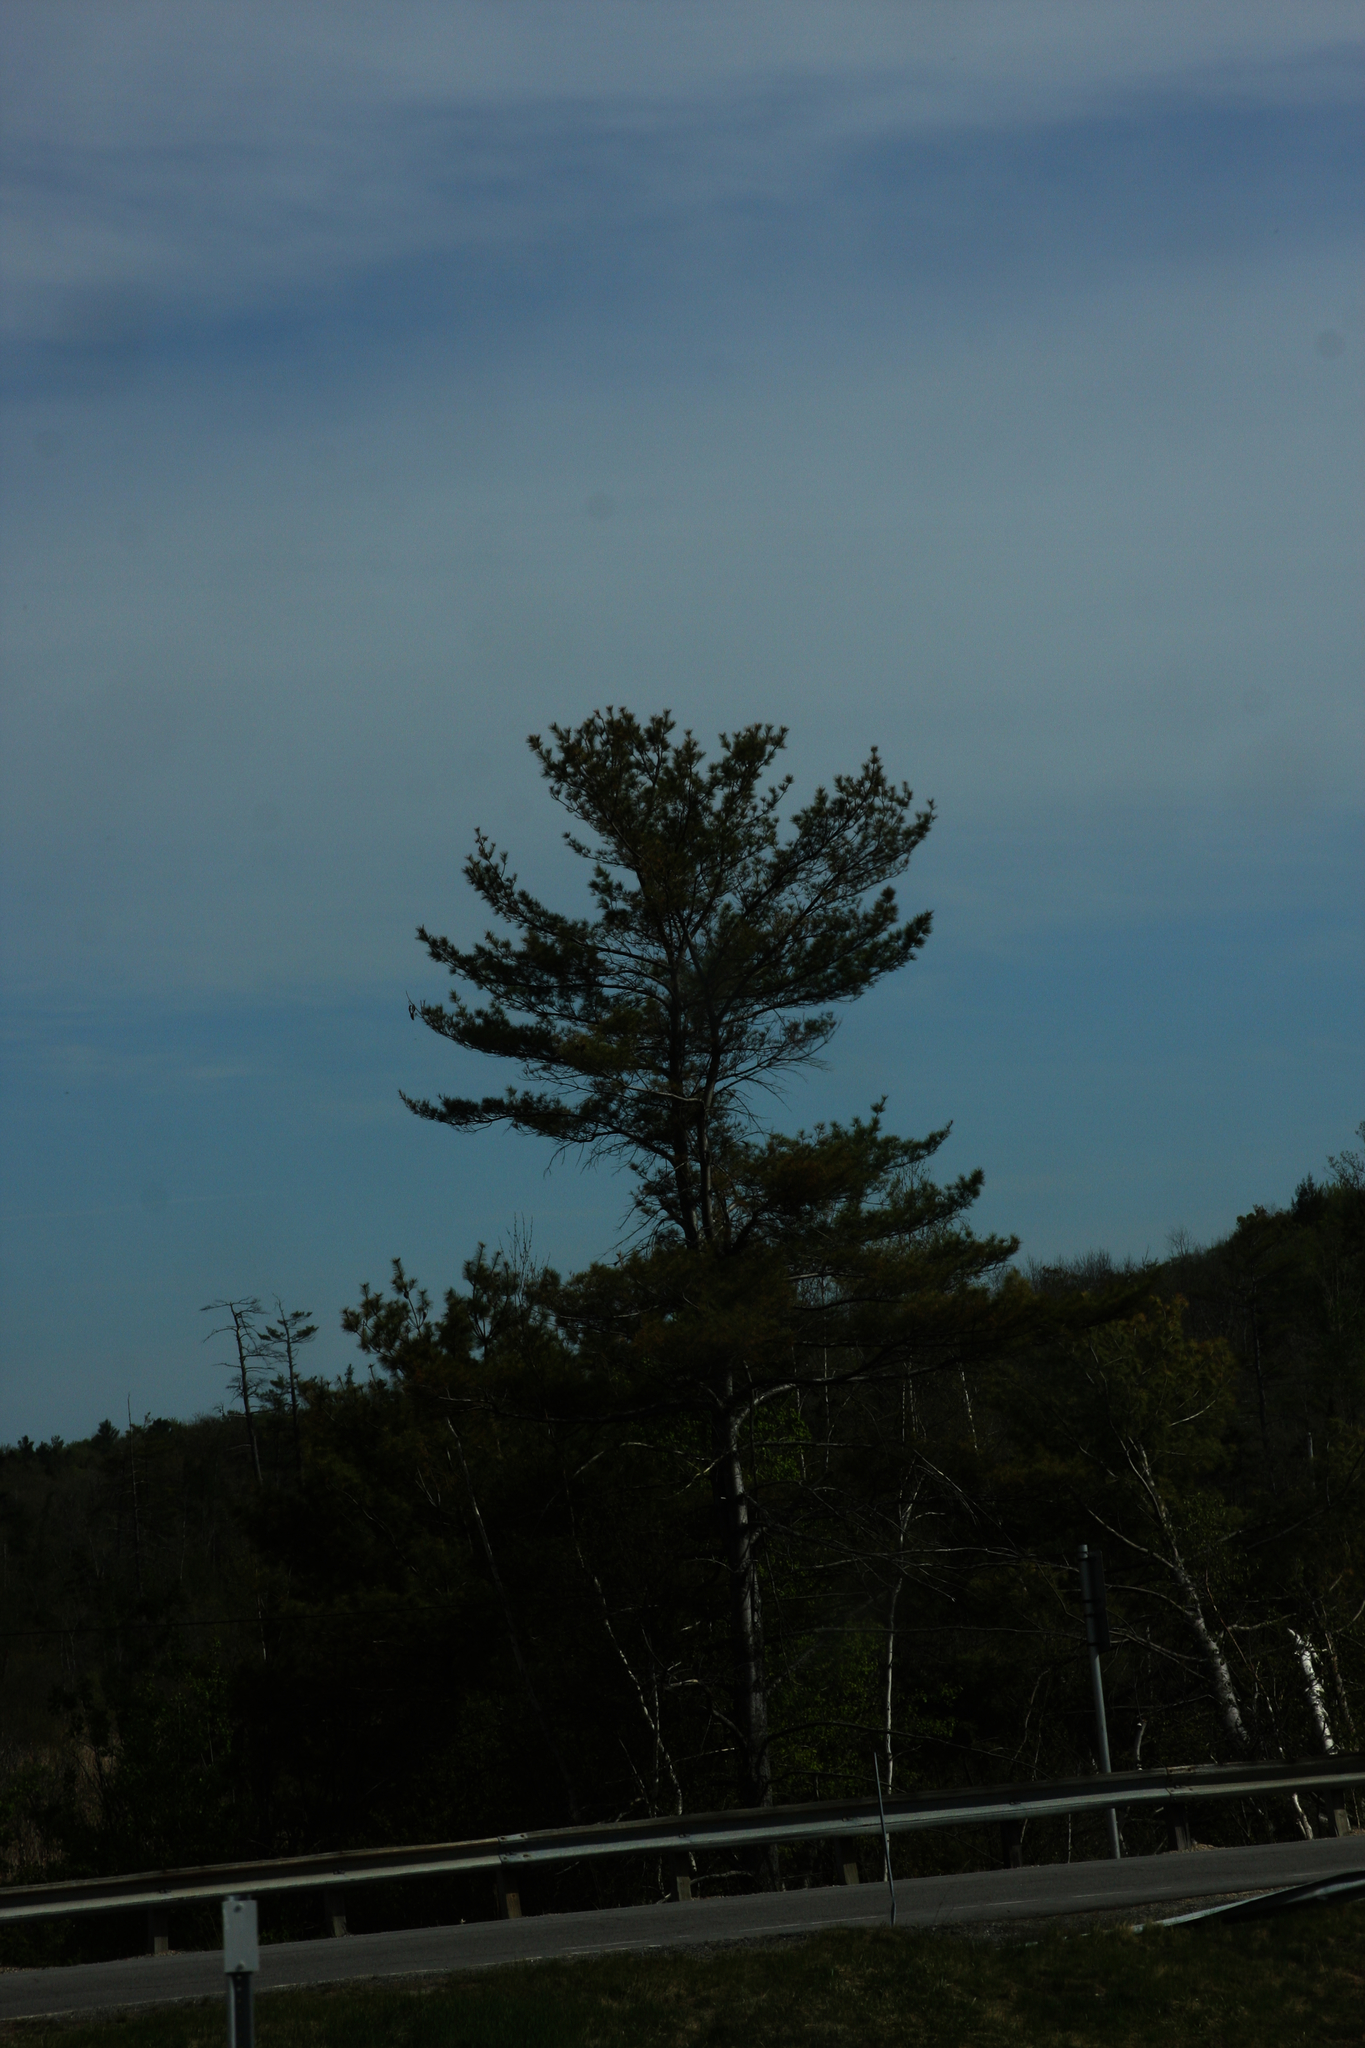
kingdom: Plantae
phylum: Tracheophyta
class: Pinopsida
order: Pinales
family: Pinaceae
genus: Pinus
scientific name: Pinus strobus
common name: Weymouth pine
